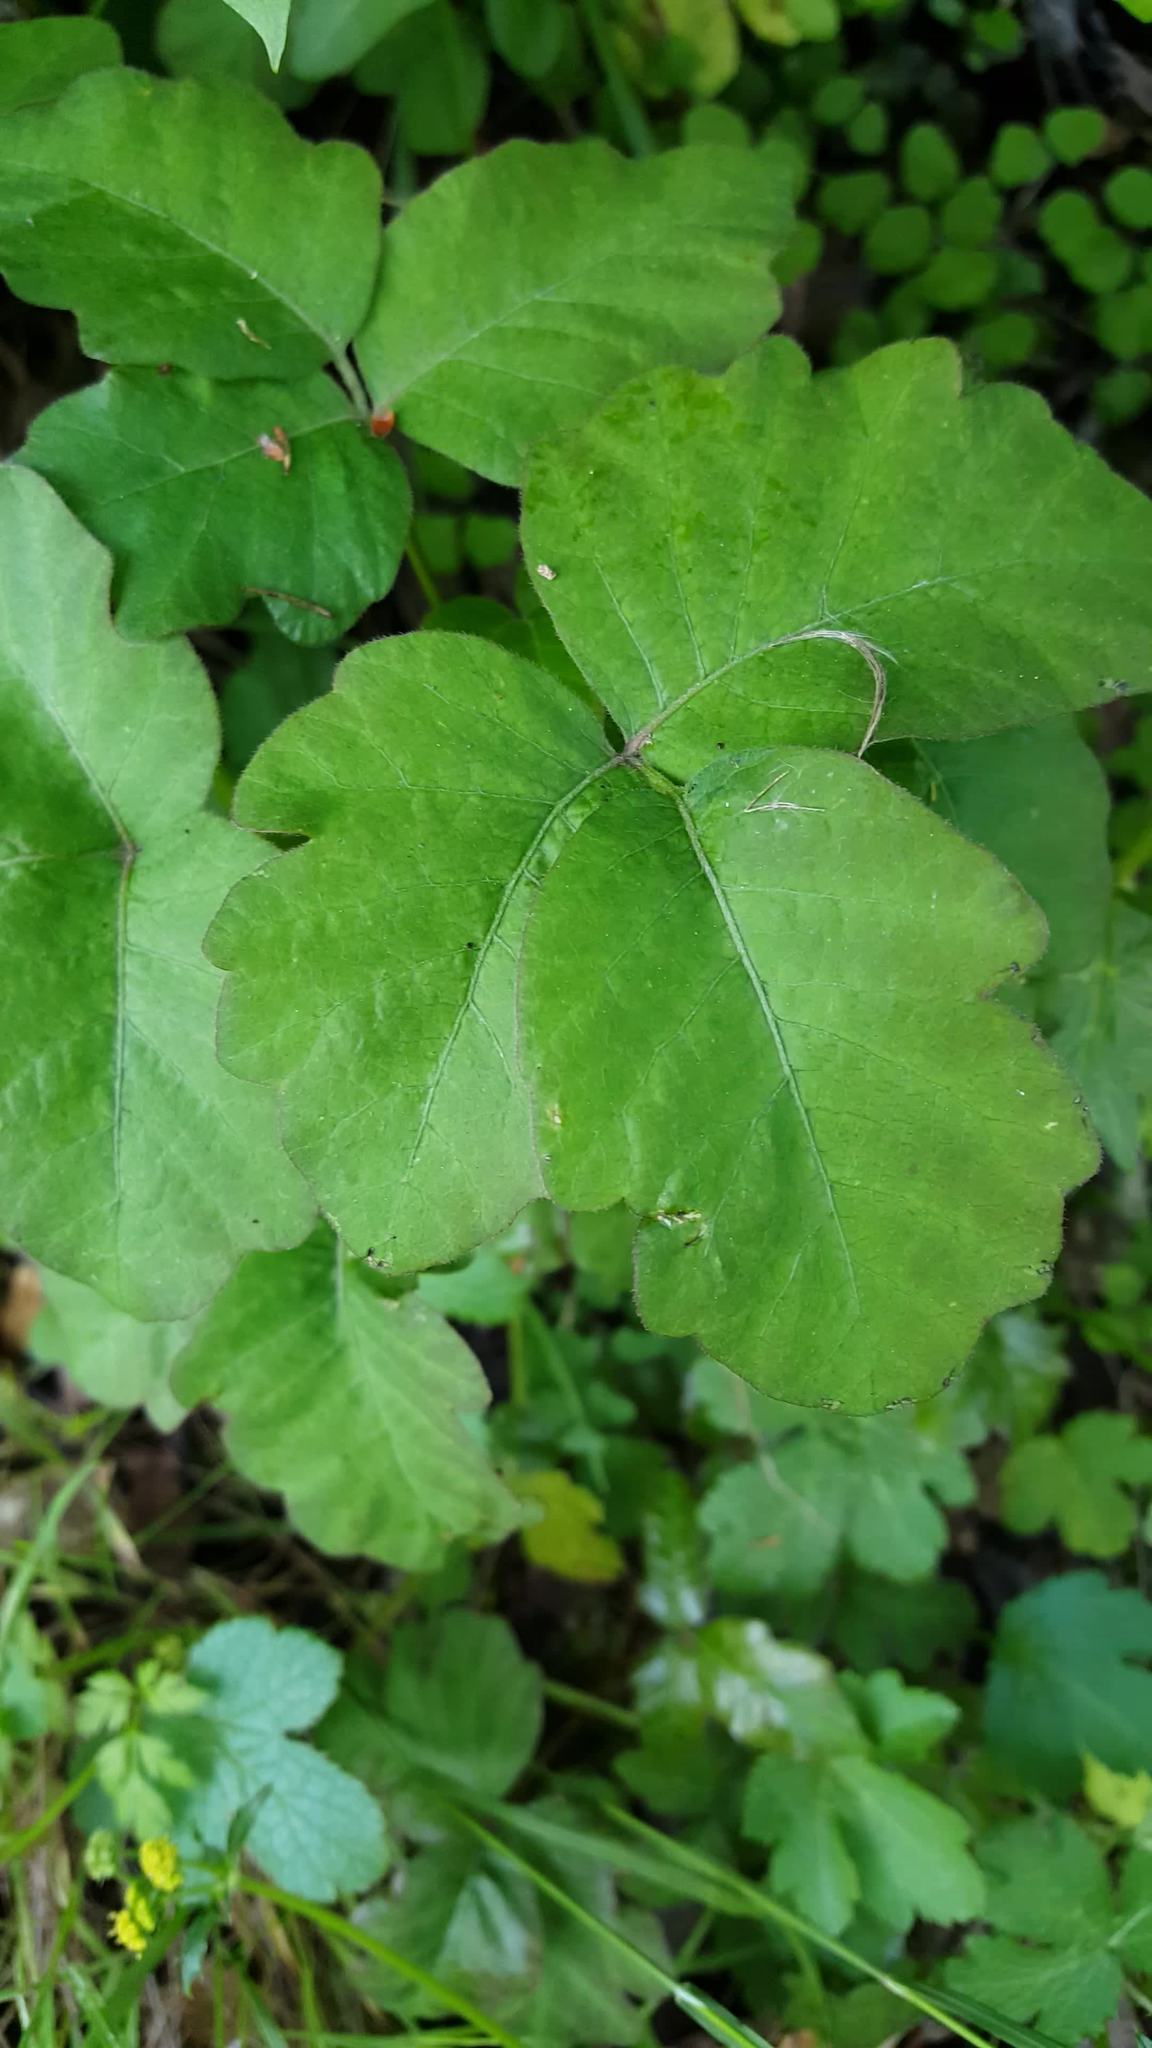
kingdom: Plantae
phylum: Tracheophyta
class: Magnoliopsida
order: Sapindales
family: Anacardiaceae
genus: Toxicodendron
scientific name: Toxicodendron diversilobum
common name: Pacific poison-oak
